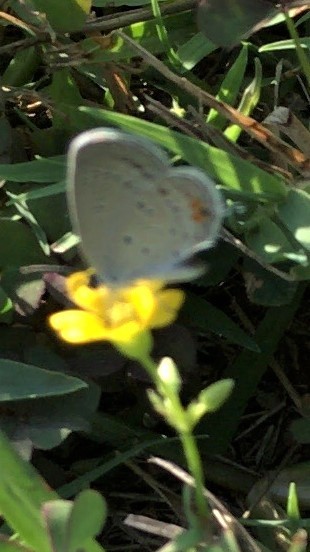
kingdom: Animalia
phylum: Arthropoda
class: Insecta
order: Lepidoptera
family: Lycaenidae
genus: Elkalyce
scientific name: Elkalyce comyntas
